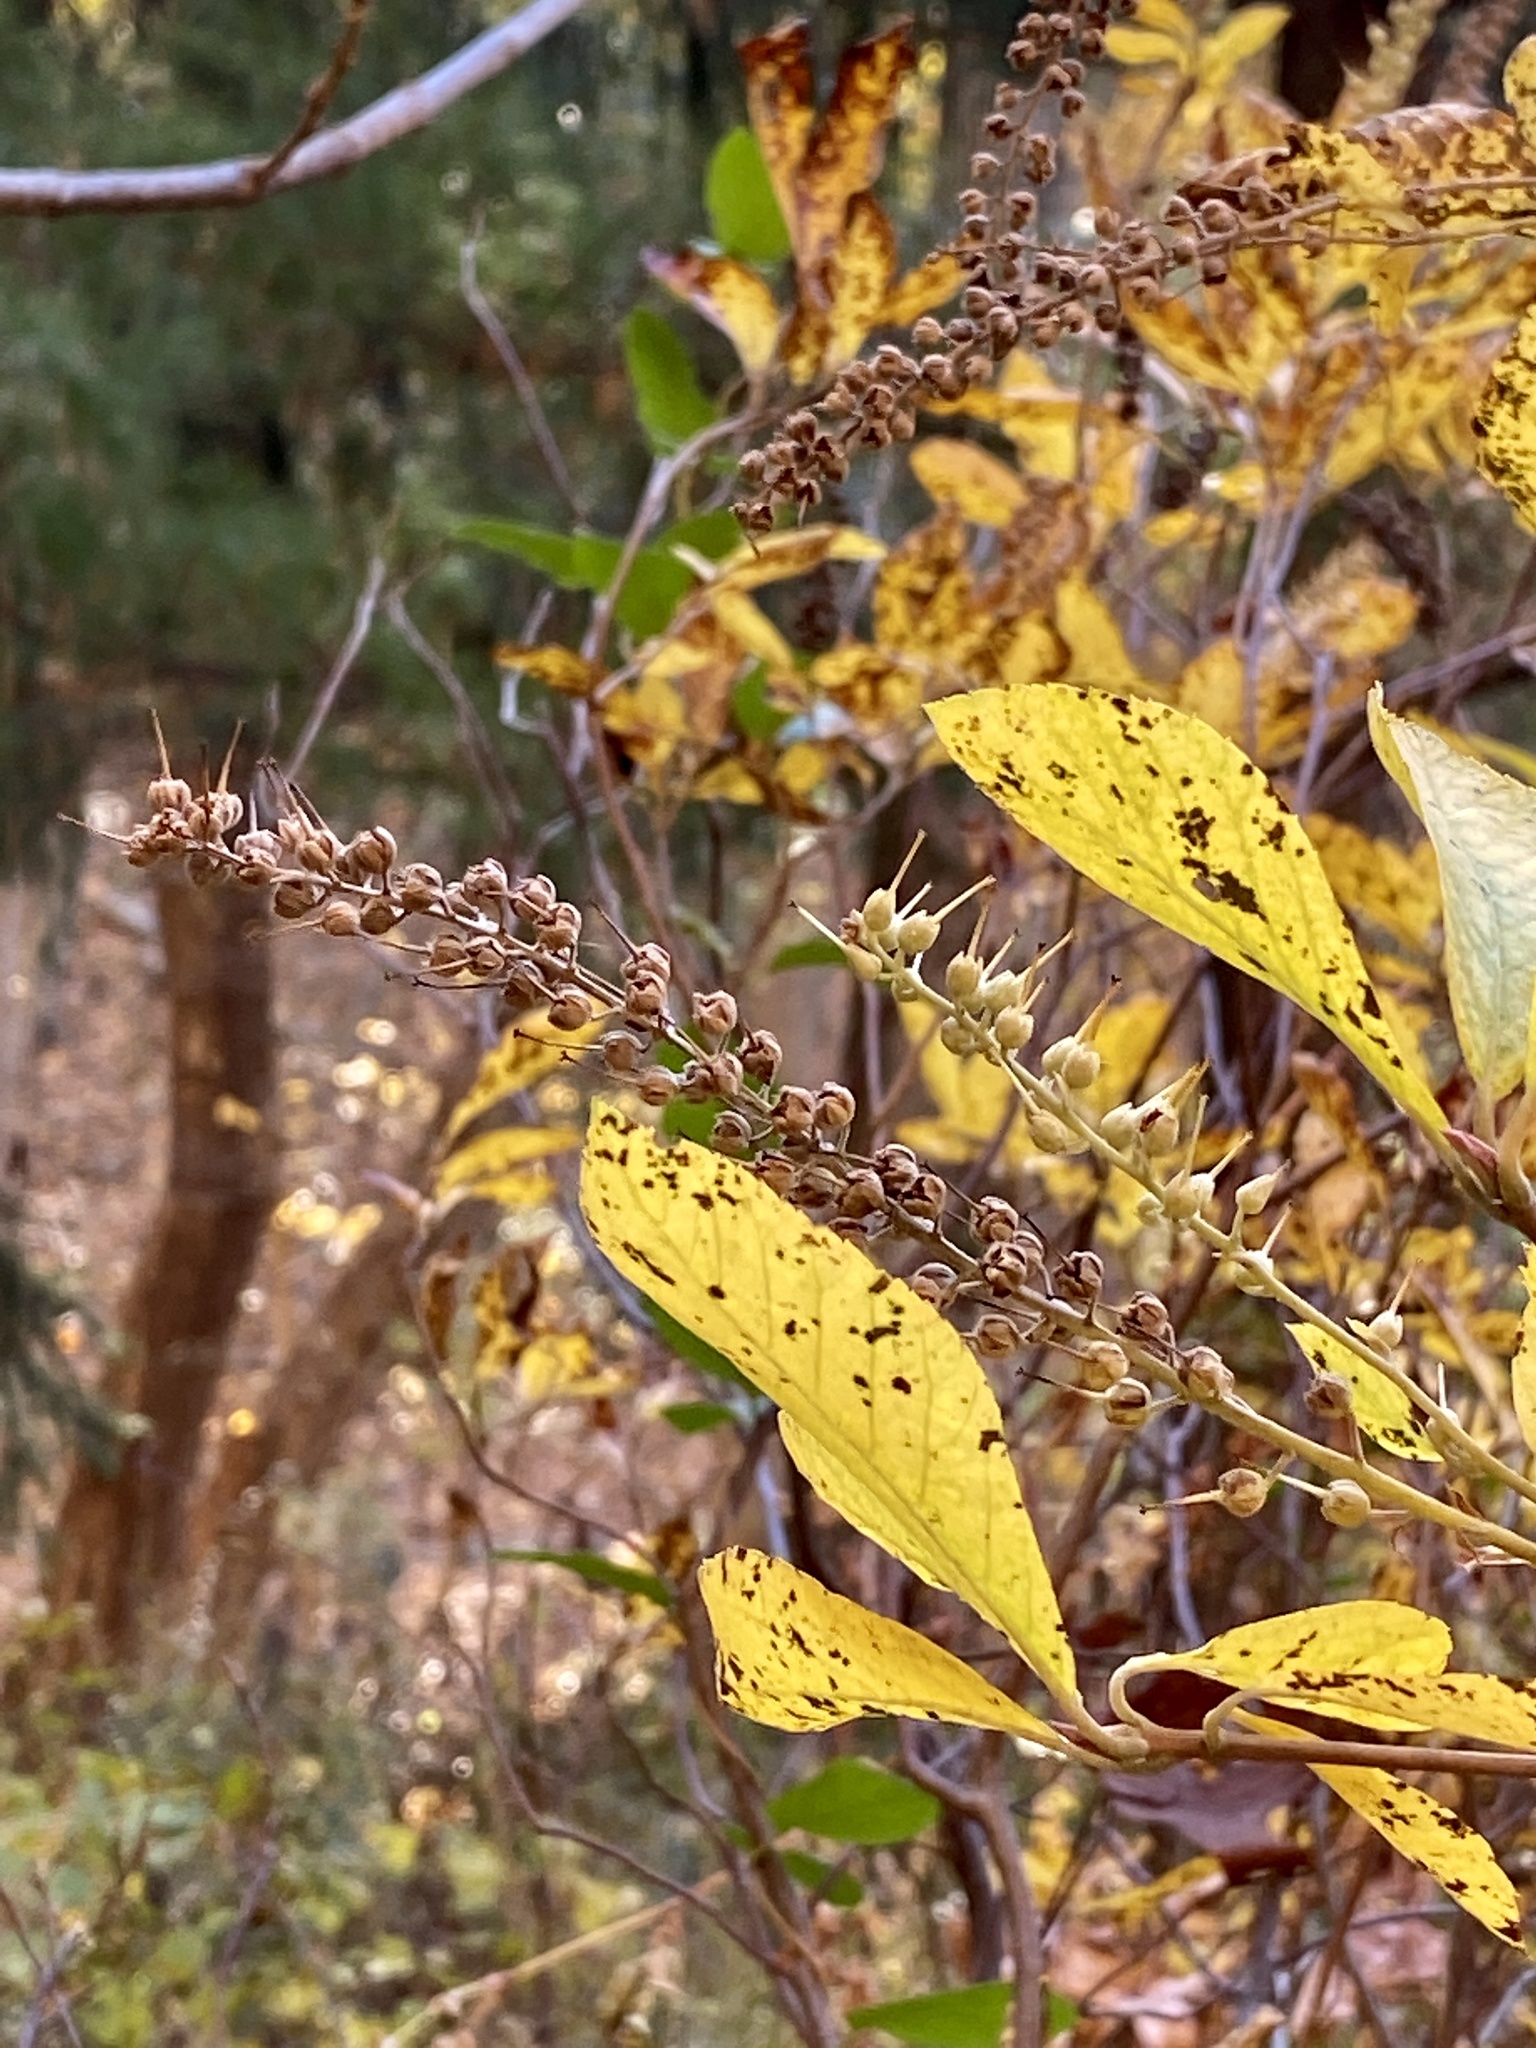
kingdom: Plantae
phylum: Tracheophyta
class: Magnoliopsida
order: Ericales
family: Clethraceae
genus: Clethra
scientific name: Clethra alnifolia
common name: Sweet pepperbush
